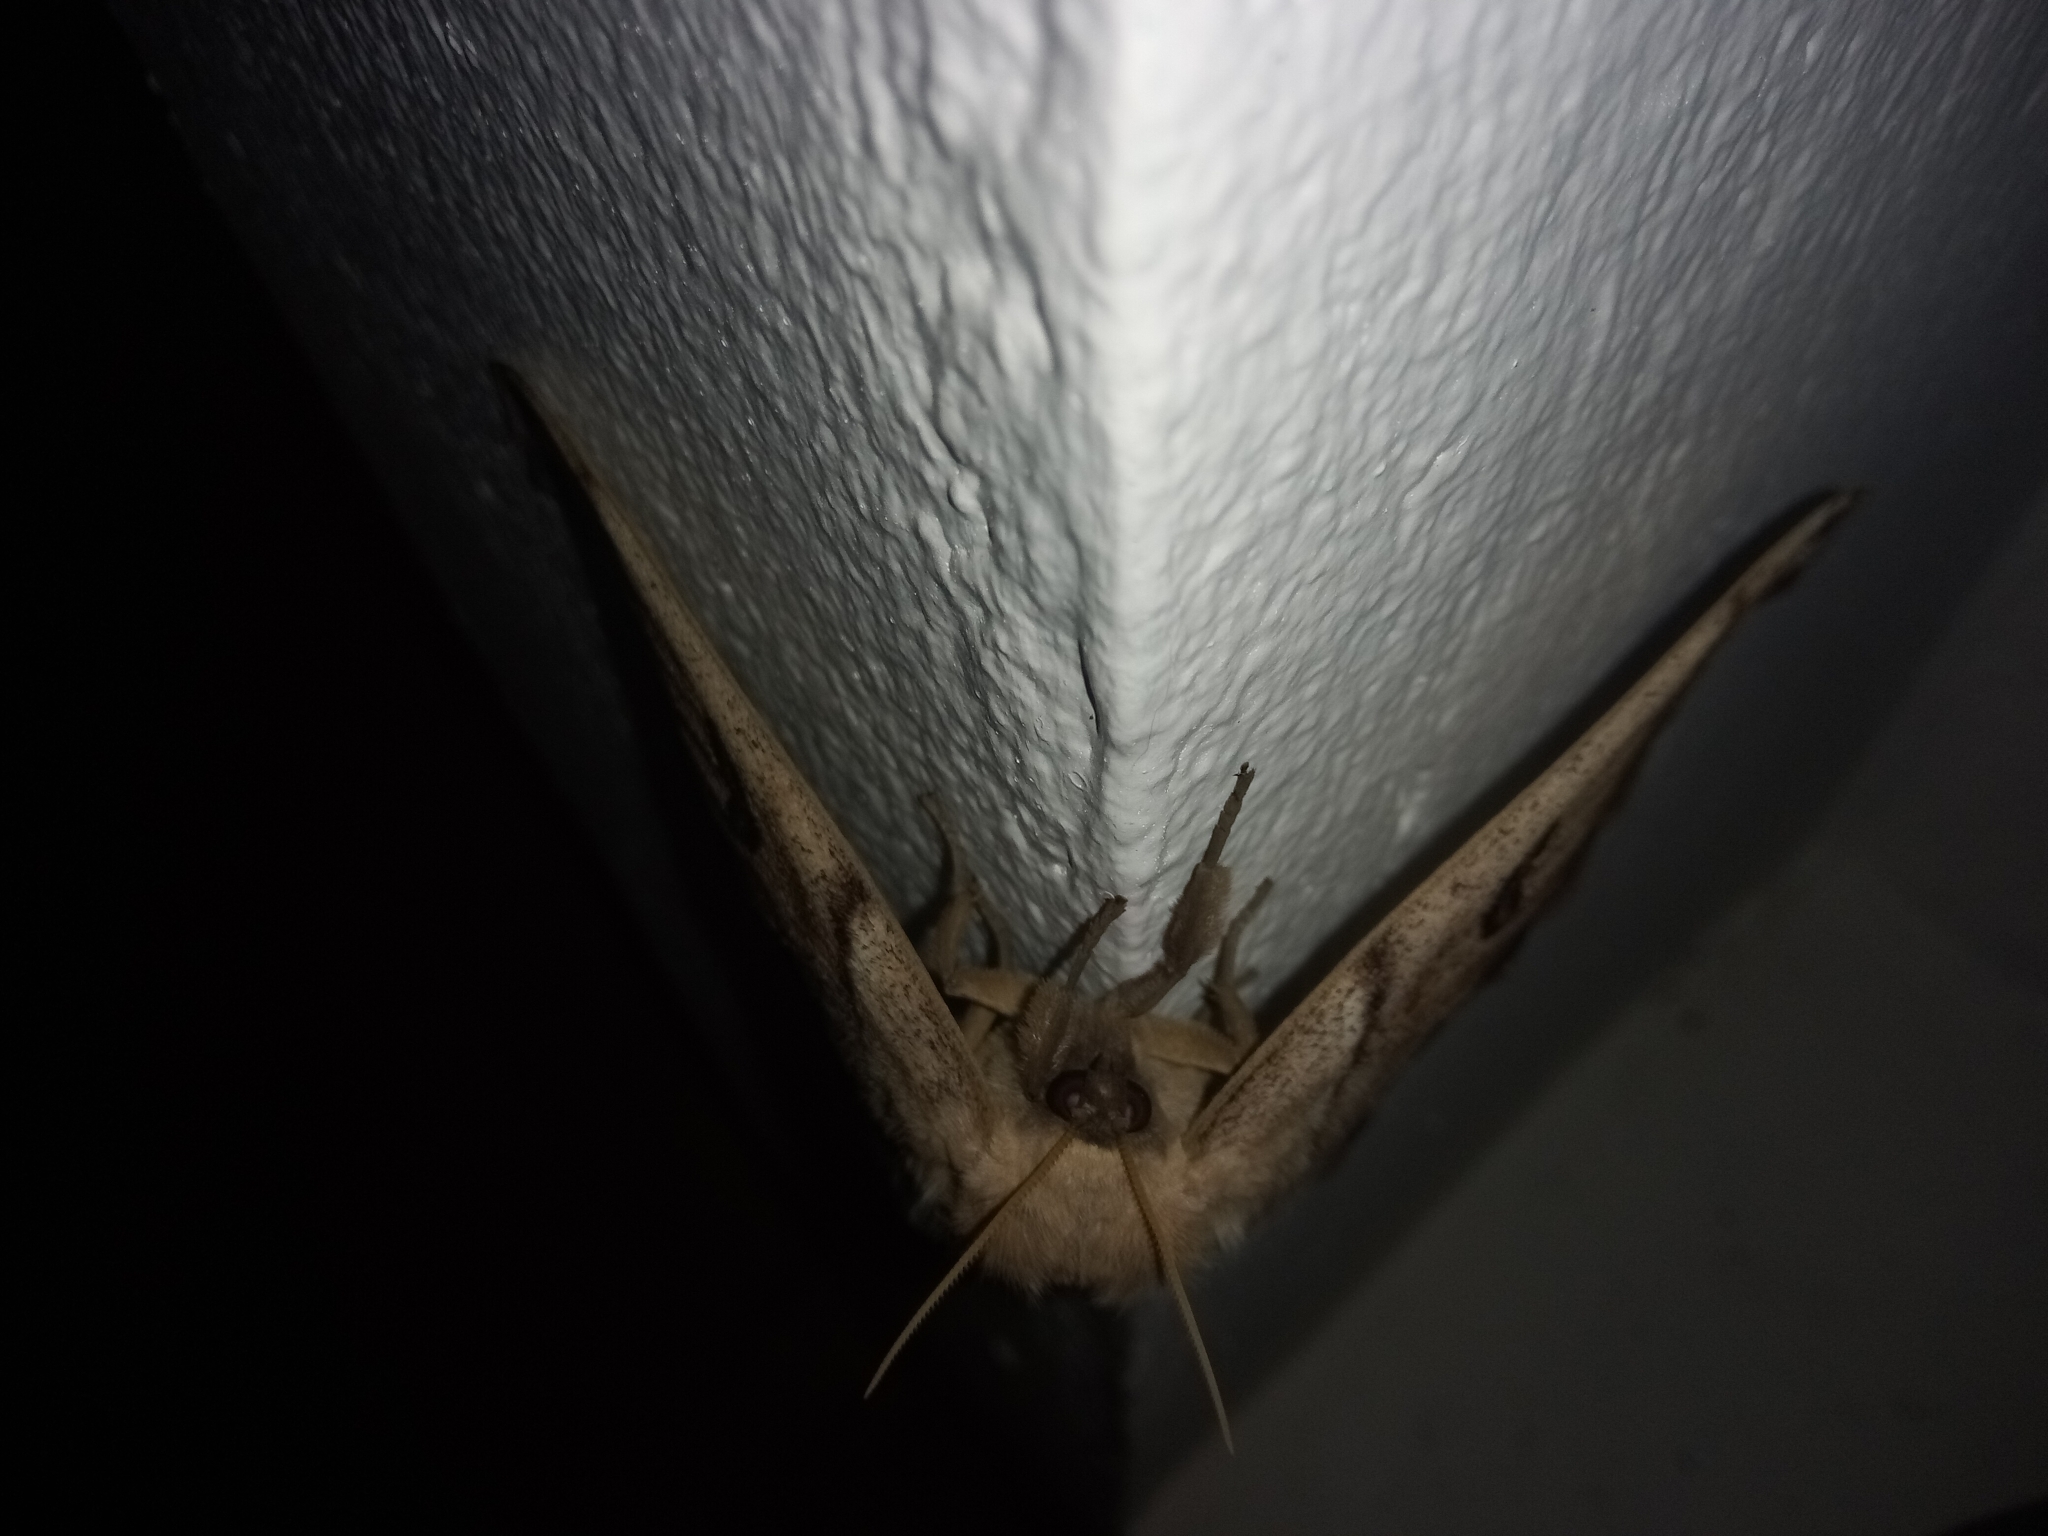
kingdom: Animalia
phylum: Arthropoda
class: Insecta
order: Lepidoptera
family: Saturniidae
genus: Caio
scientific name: Caio championi
